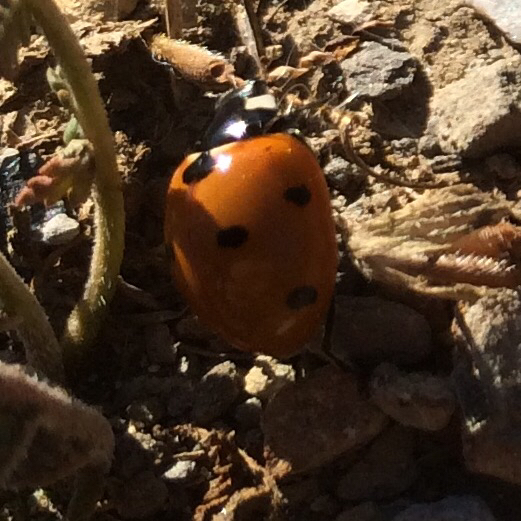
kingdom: Animalia
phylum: Arthropoda
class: Insecta
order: Coleoptera
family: Coccinellidae
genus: Coccinella
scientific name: Coccinella septempunctata
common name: Sevenspotted lady beetle
